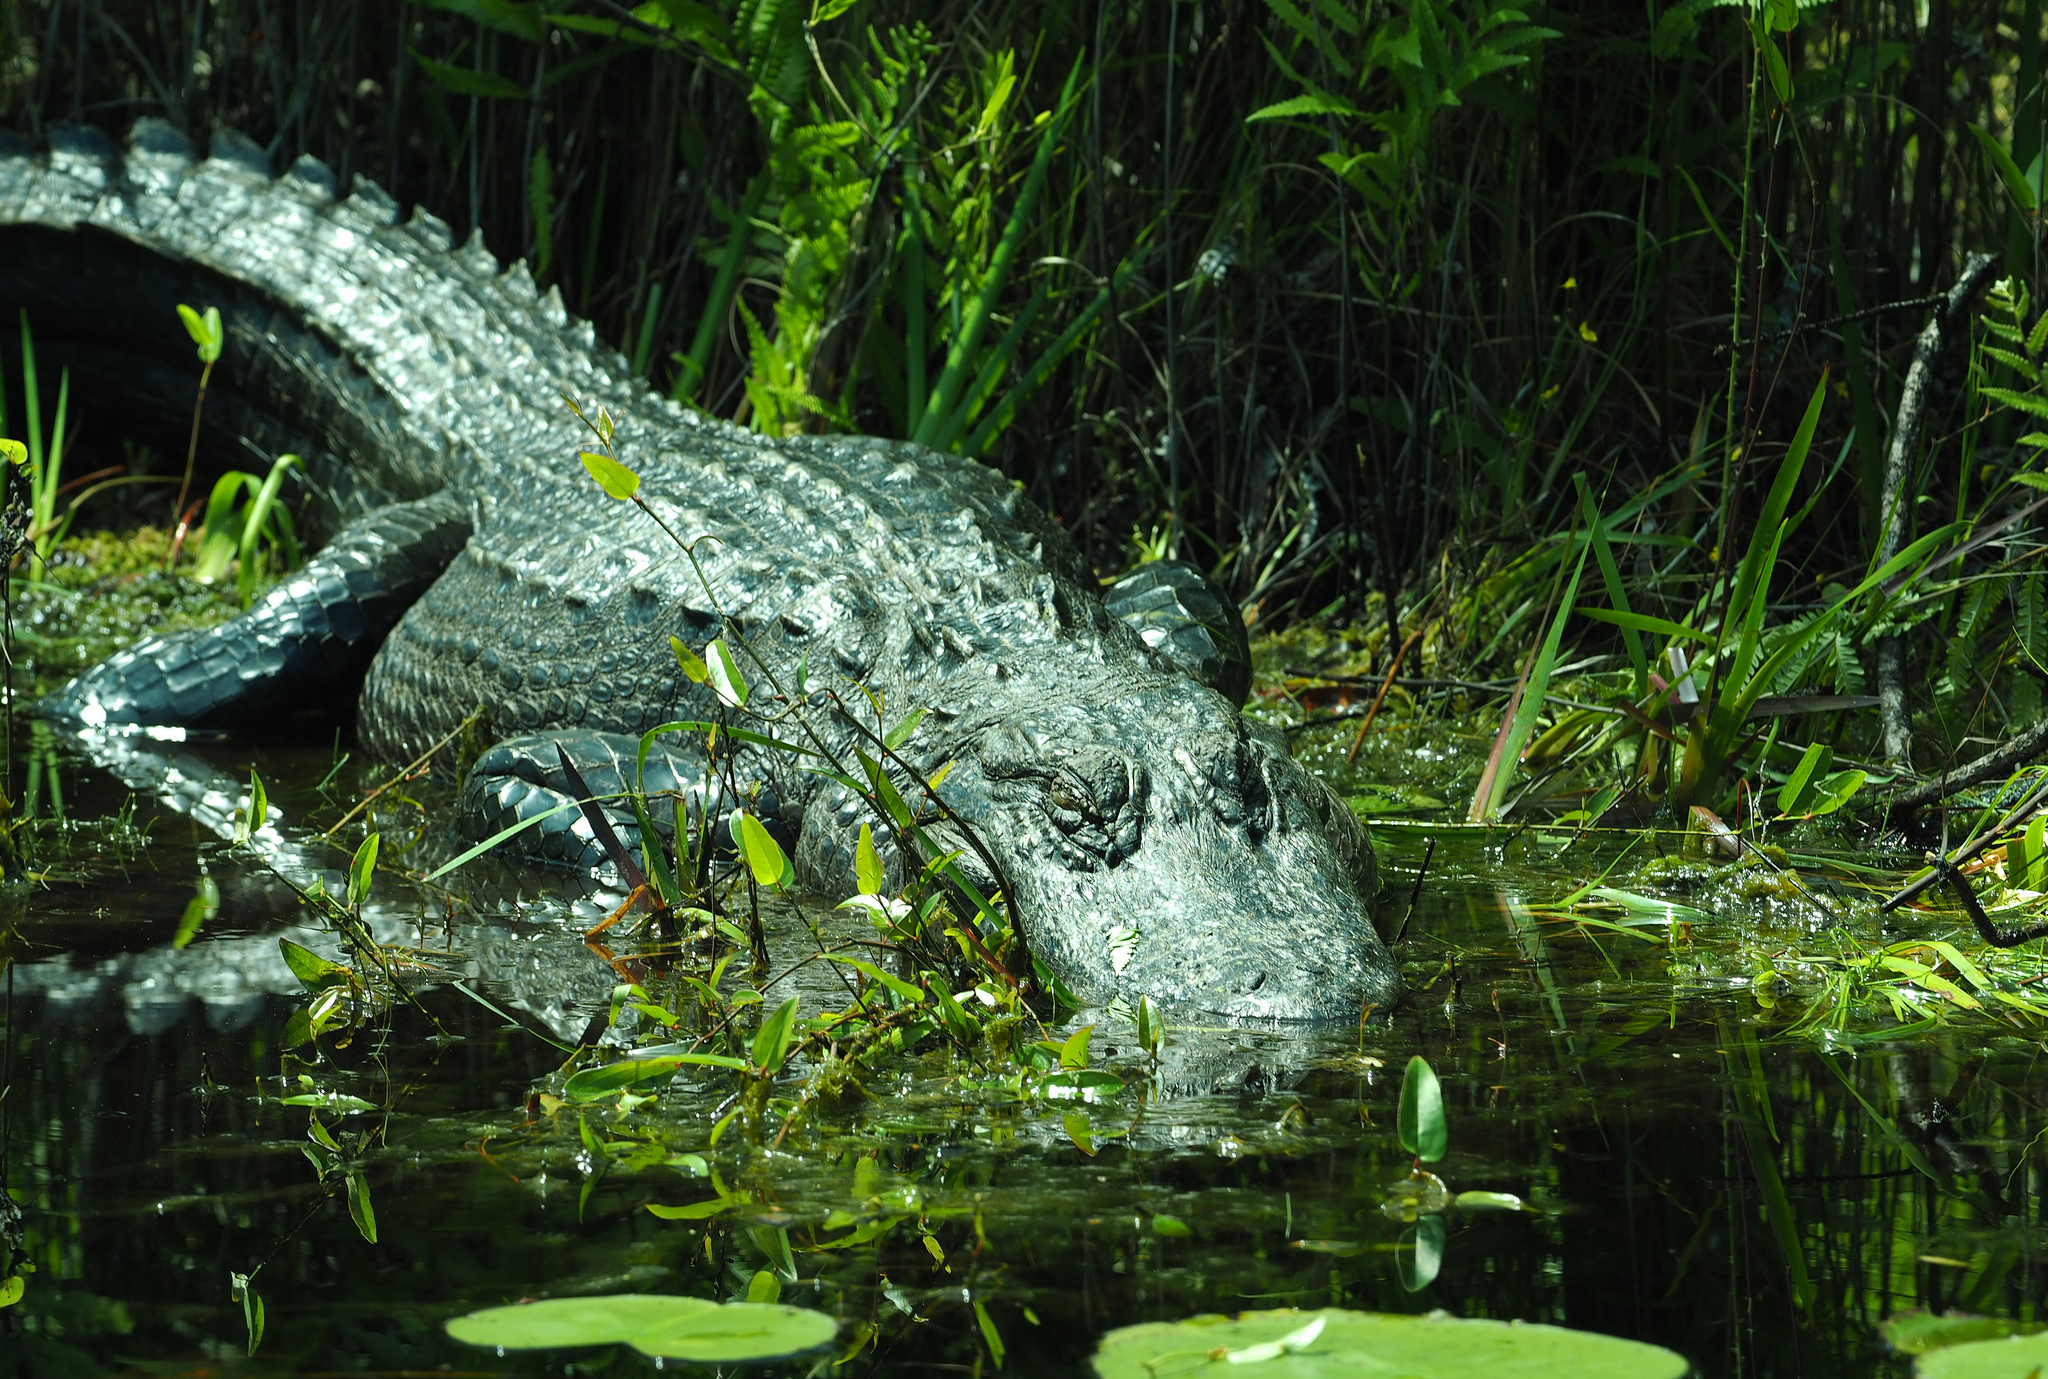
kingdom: Animalia
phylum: Chordata
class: Crocodylia
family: Alligatoridae
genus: Alligator
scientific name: Alligator mississippiensis
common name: American alligator
